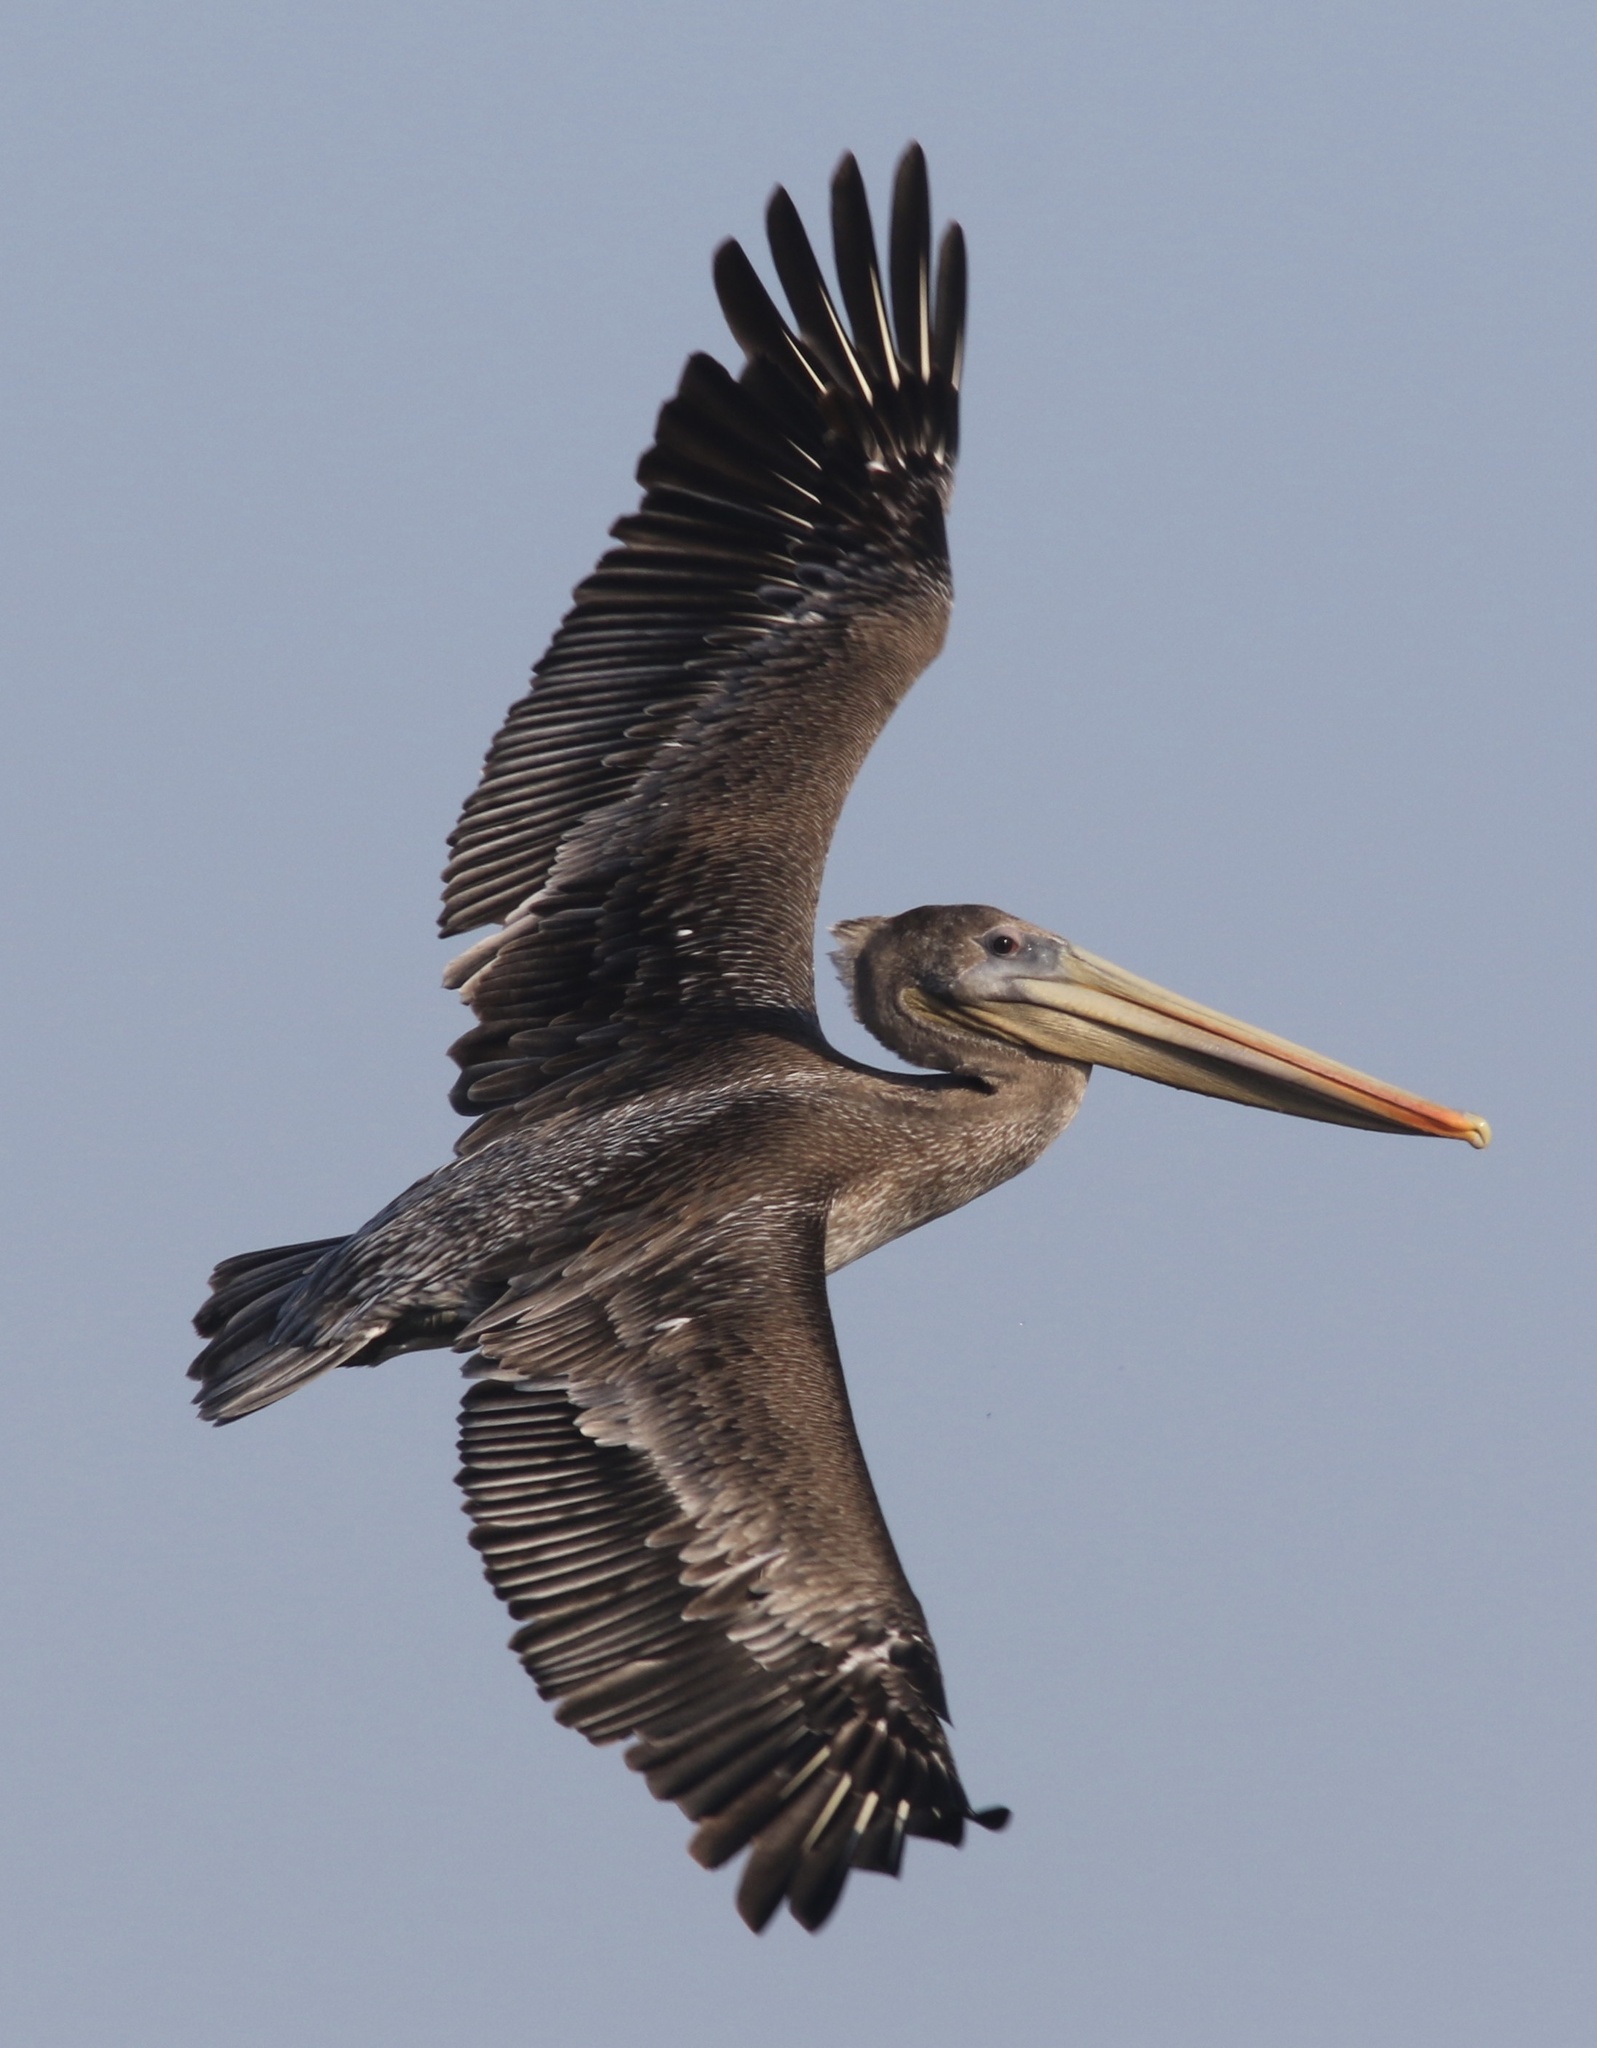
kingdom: Animalia
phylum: Chordata
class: Aves
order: Pelecaniformes
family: Pelecanidae
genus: Pelecanus
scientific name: Pelecanus occidentalis
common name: Brown pelican
